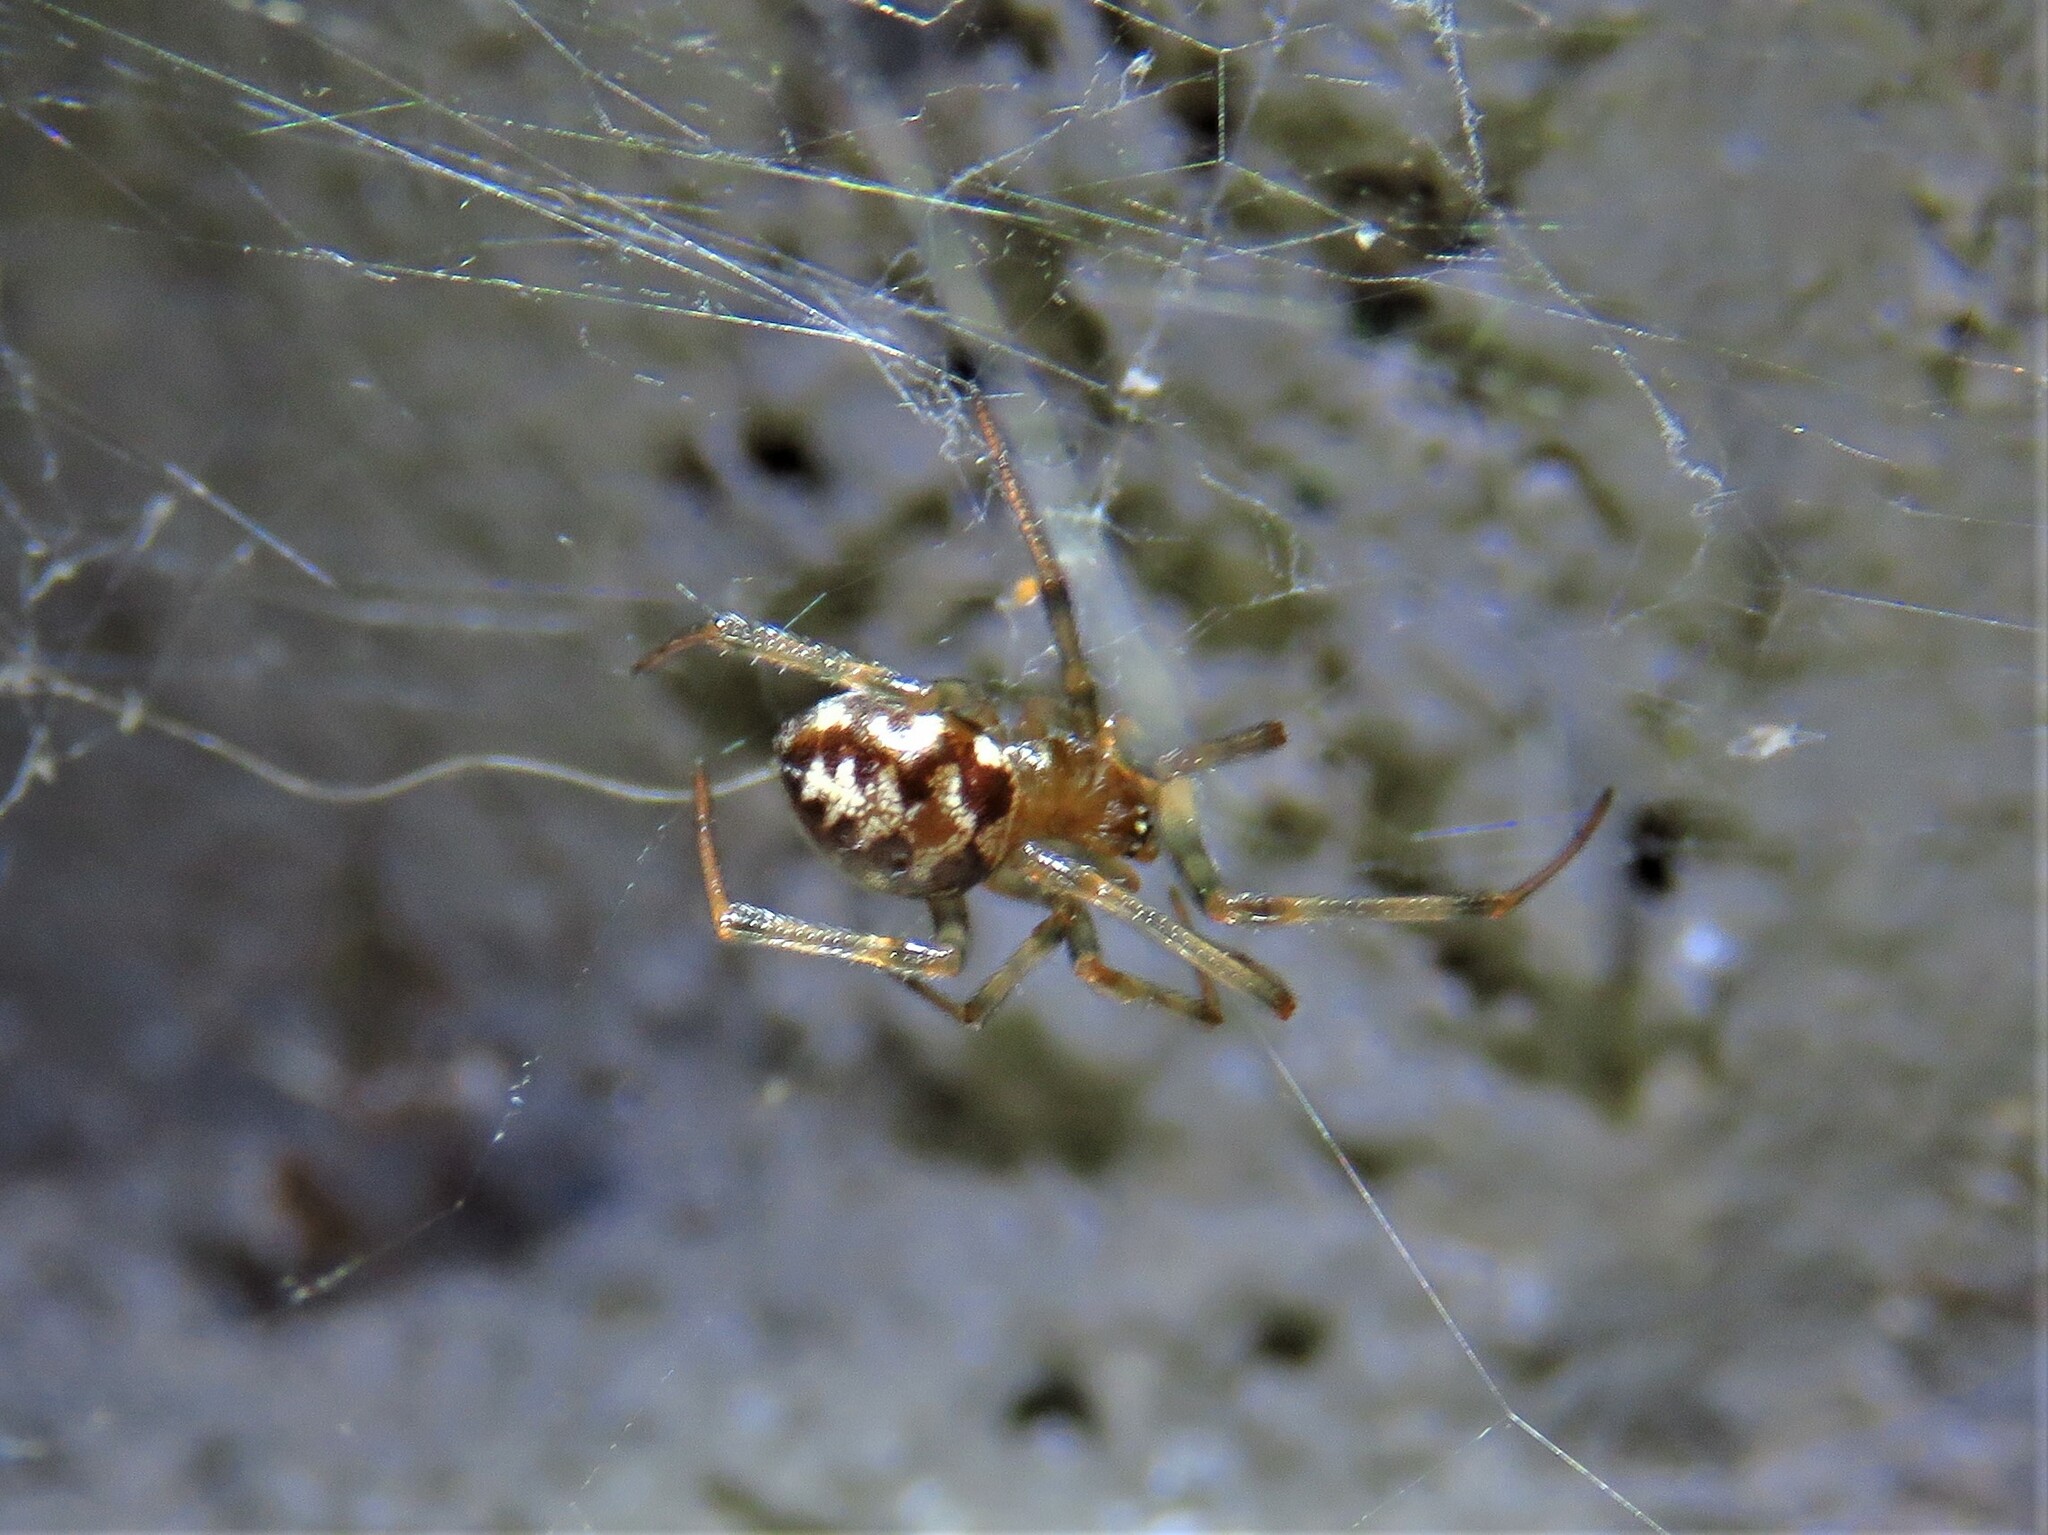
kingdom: Animalia
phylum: Arthropoda
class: Arachnida
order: Araneae
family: Theridiidae
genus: Steatoda
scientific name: Steatoda triangulosa
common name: Triangulate bud spider
